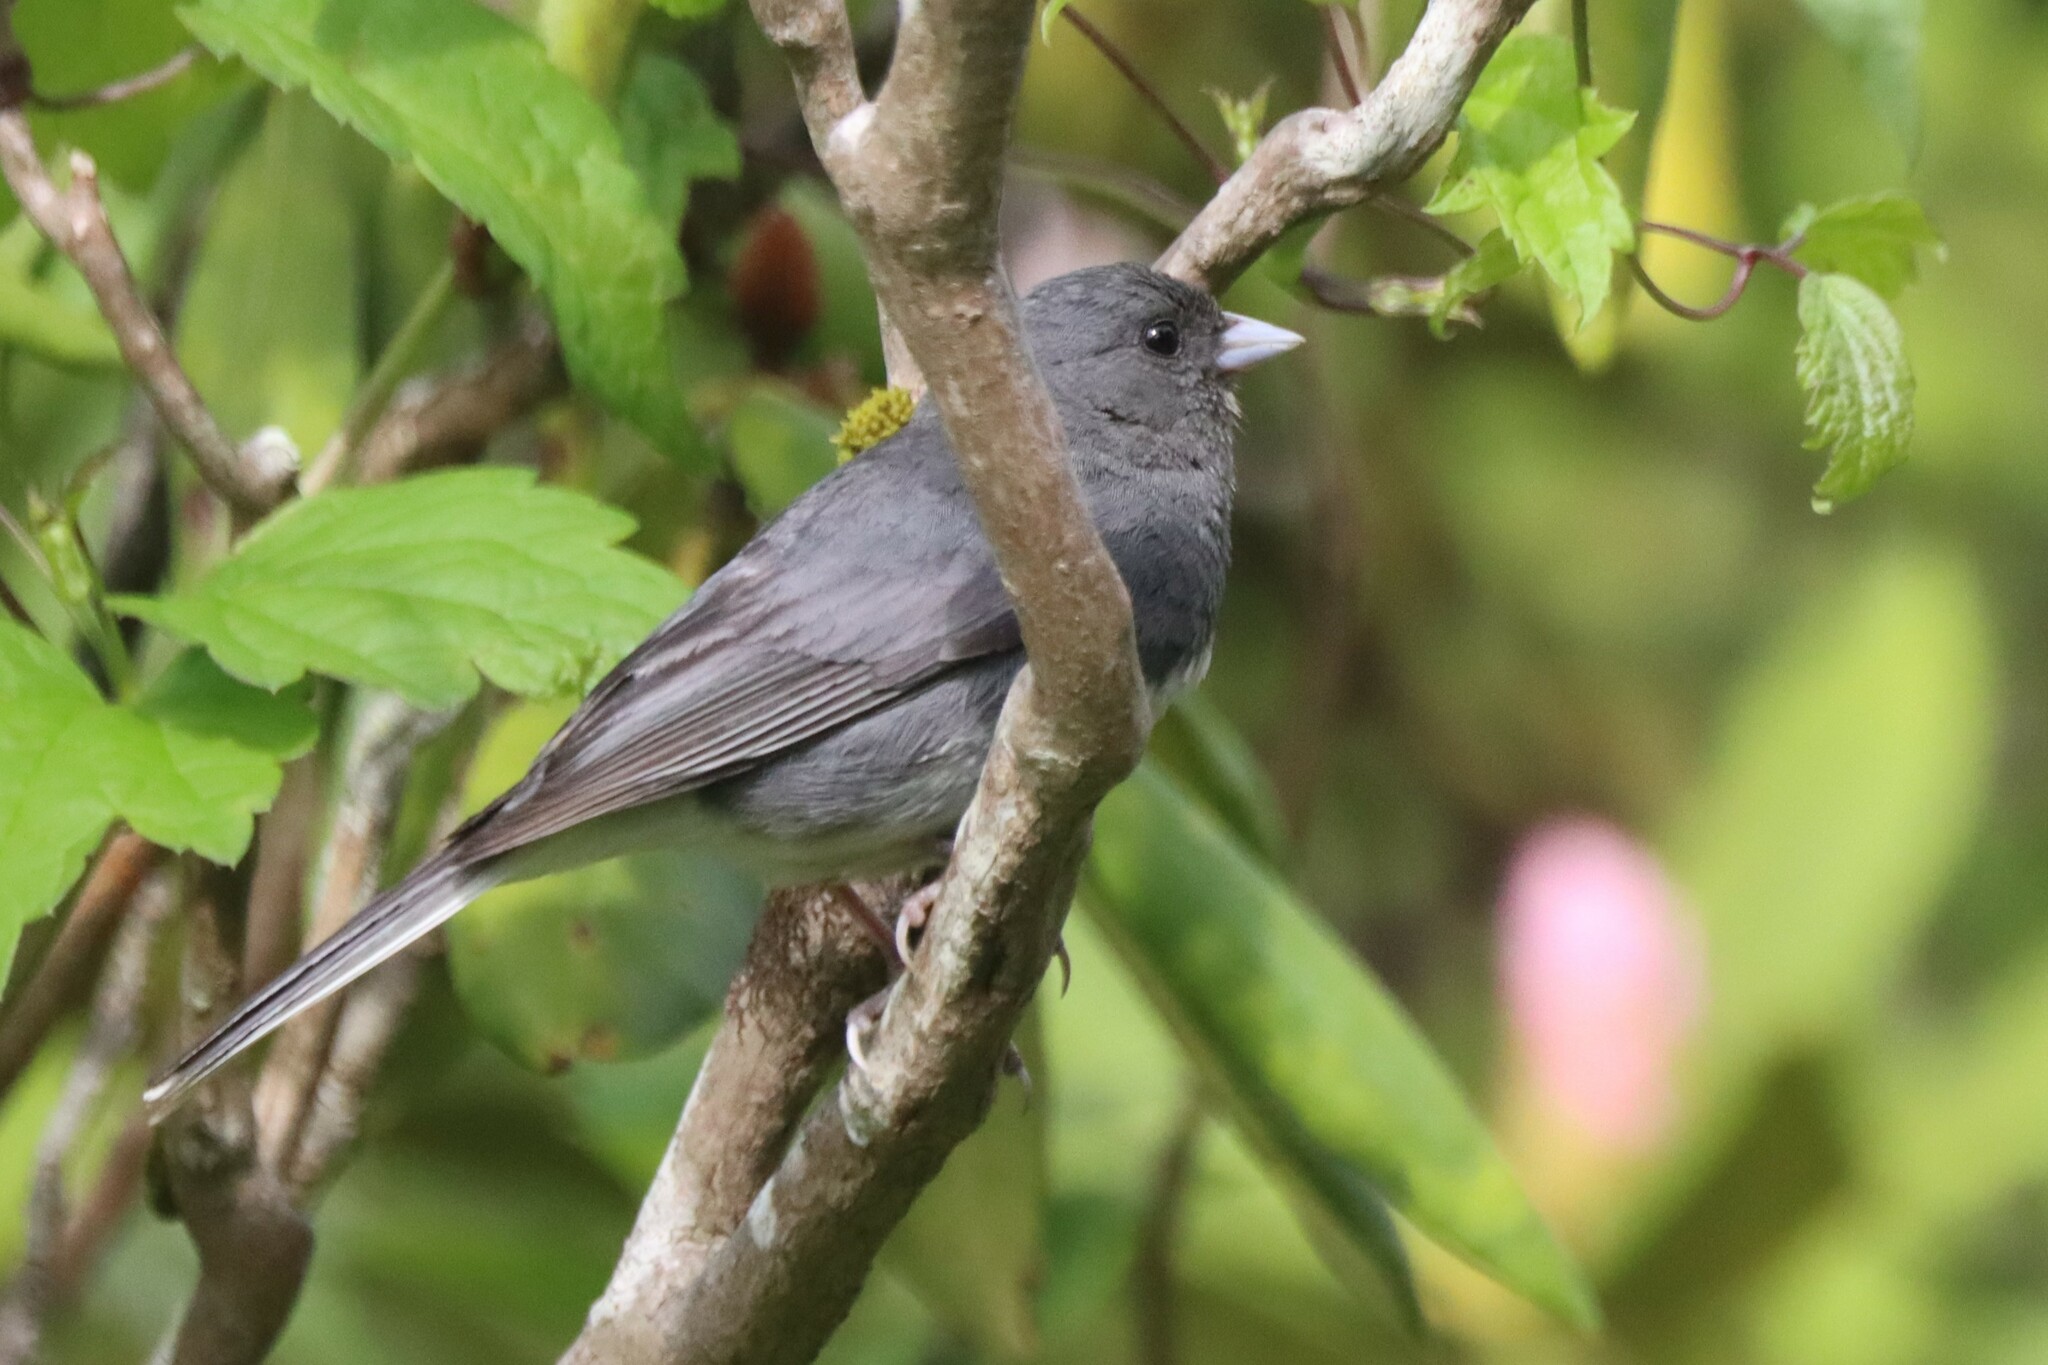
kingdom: Animalia
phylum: Chordata
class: Aves
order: Passeriformes
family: Passerellidae
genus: Junco
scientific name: Junco hyemalis
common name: Dark-eyed junco
